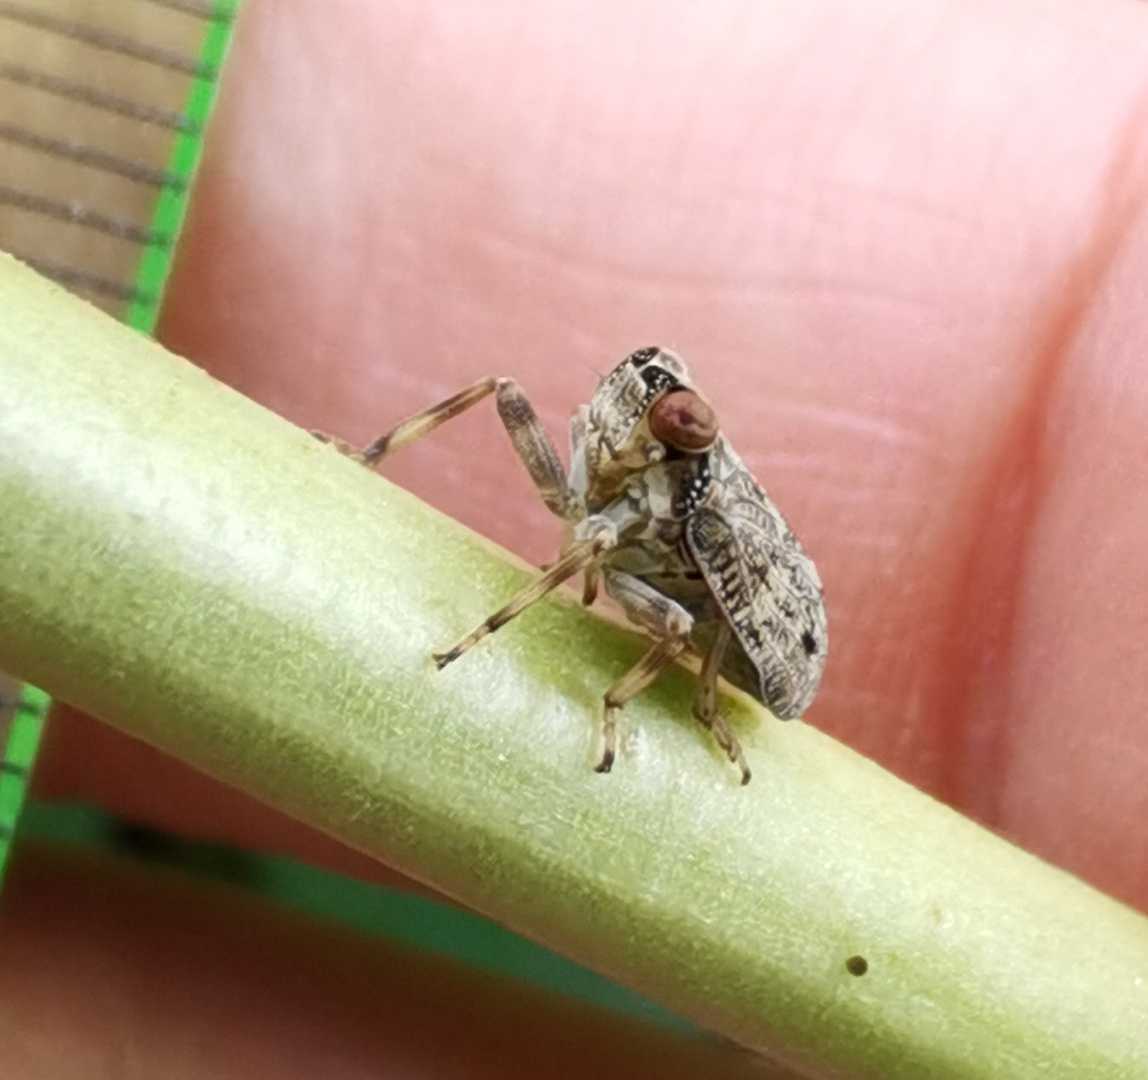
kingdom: Animalia
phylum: Arthropoda
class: Insecta
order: Hemiptera
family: Issidae
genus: Issus
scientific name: Issus coleoptratus
